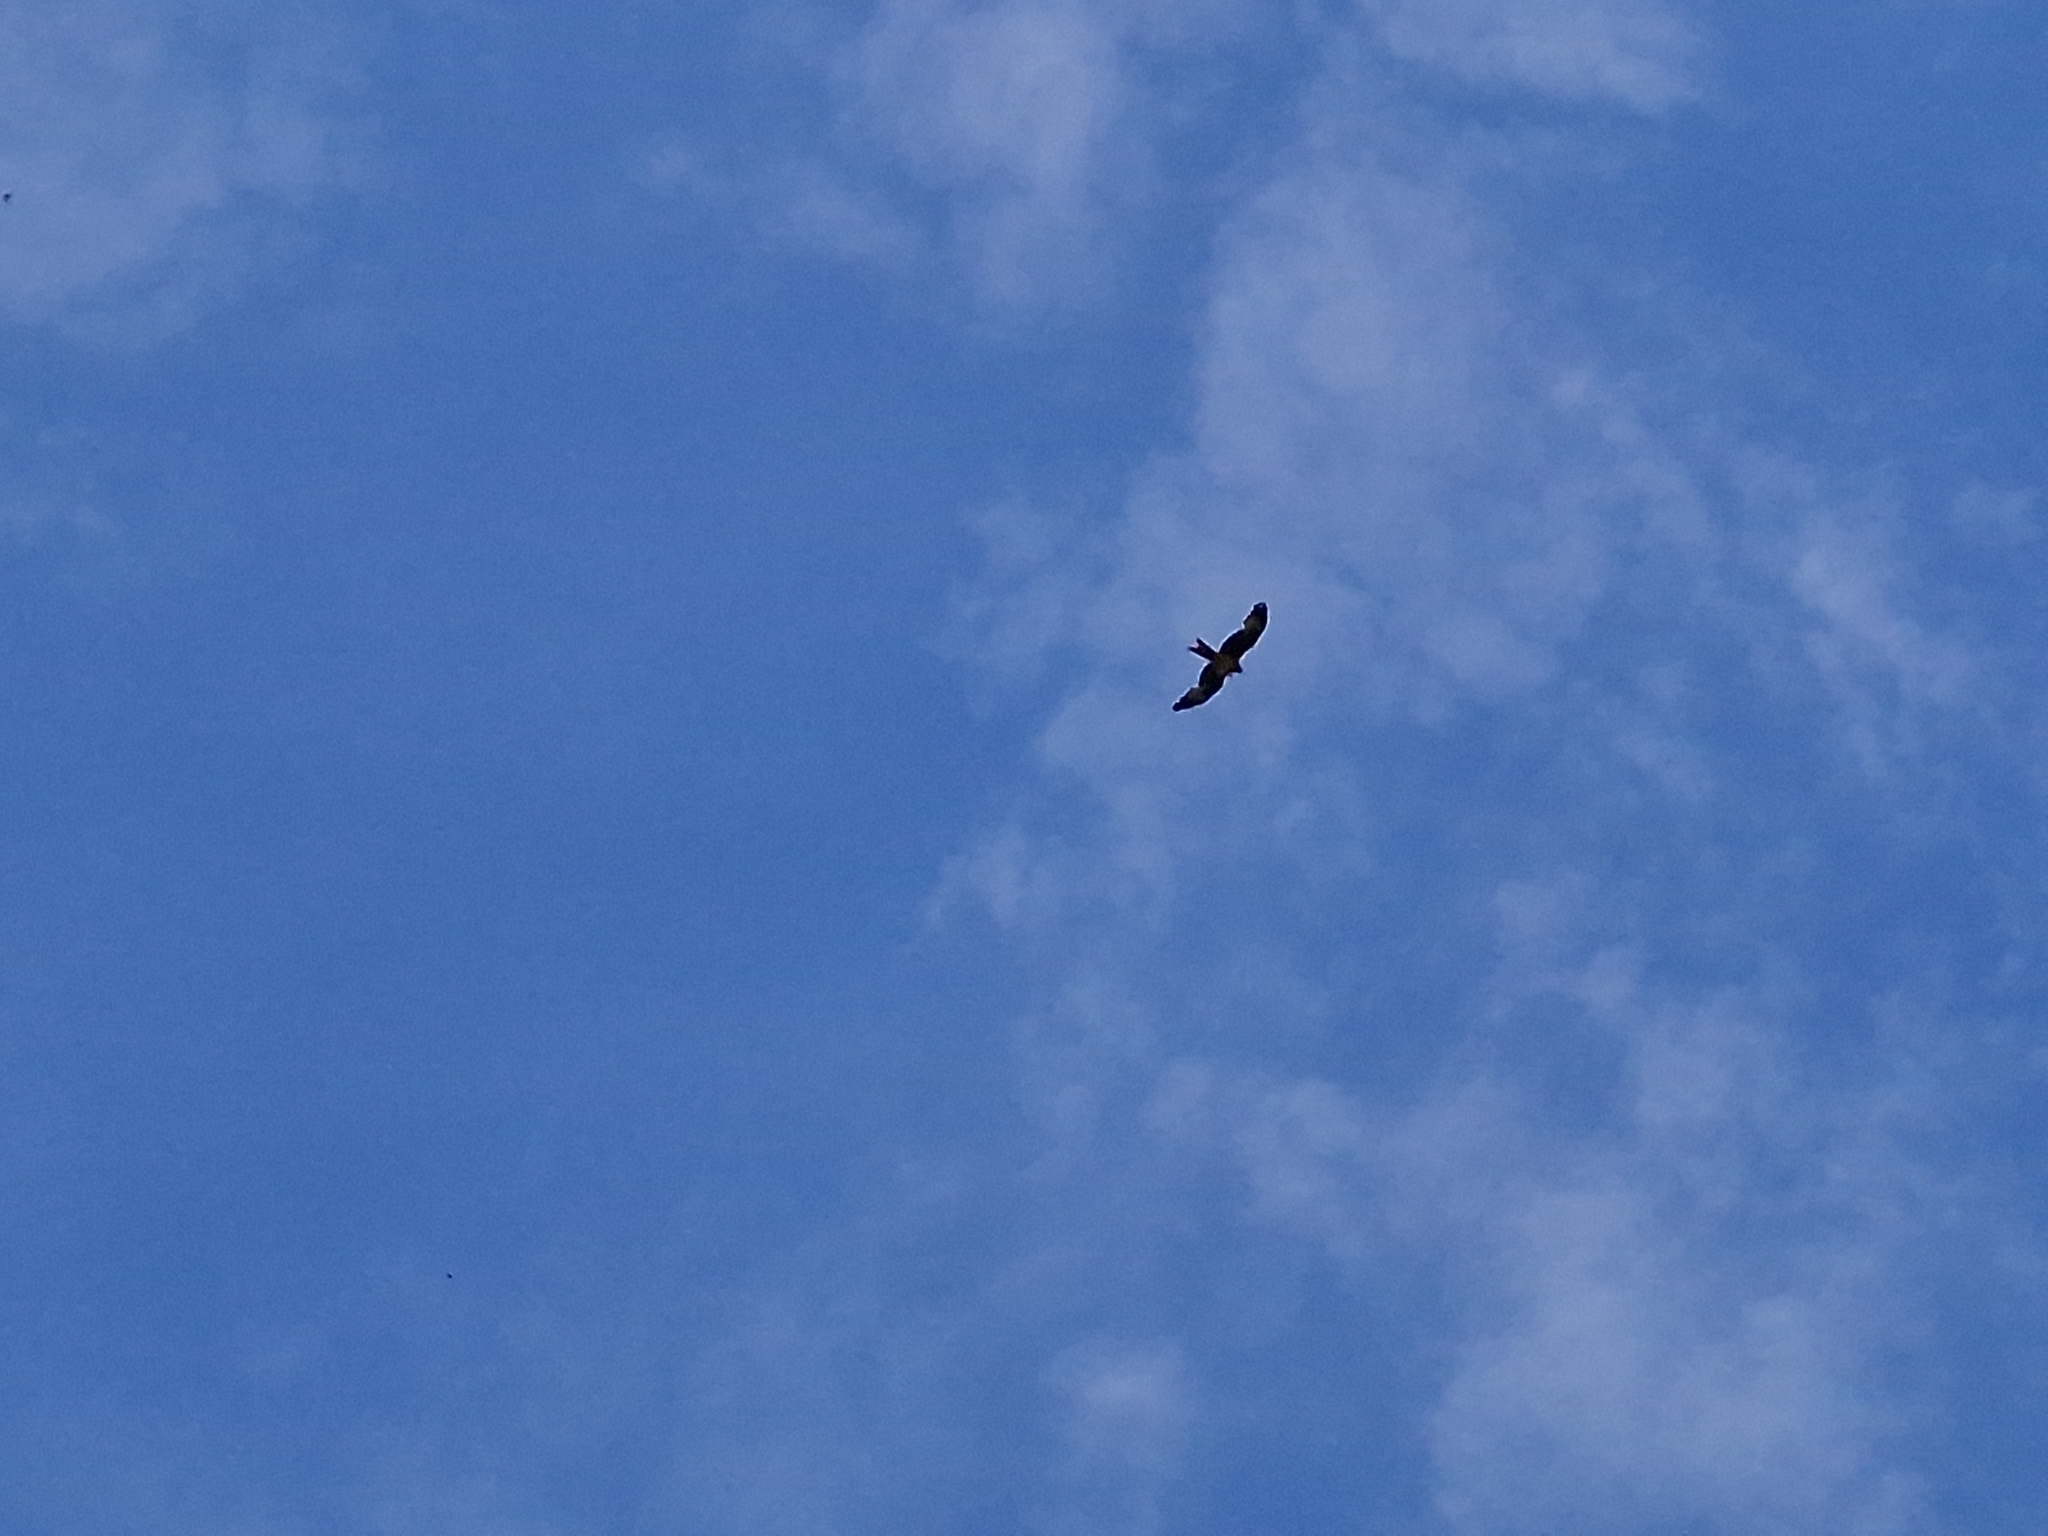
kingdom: Animalia
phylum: Chordata
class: Aves
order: Accipitriformes
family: Accipitridae
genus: Milvus
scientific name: Milvus milvus
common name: Red kite
